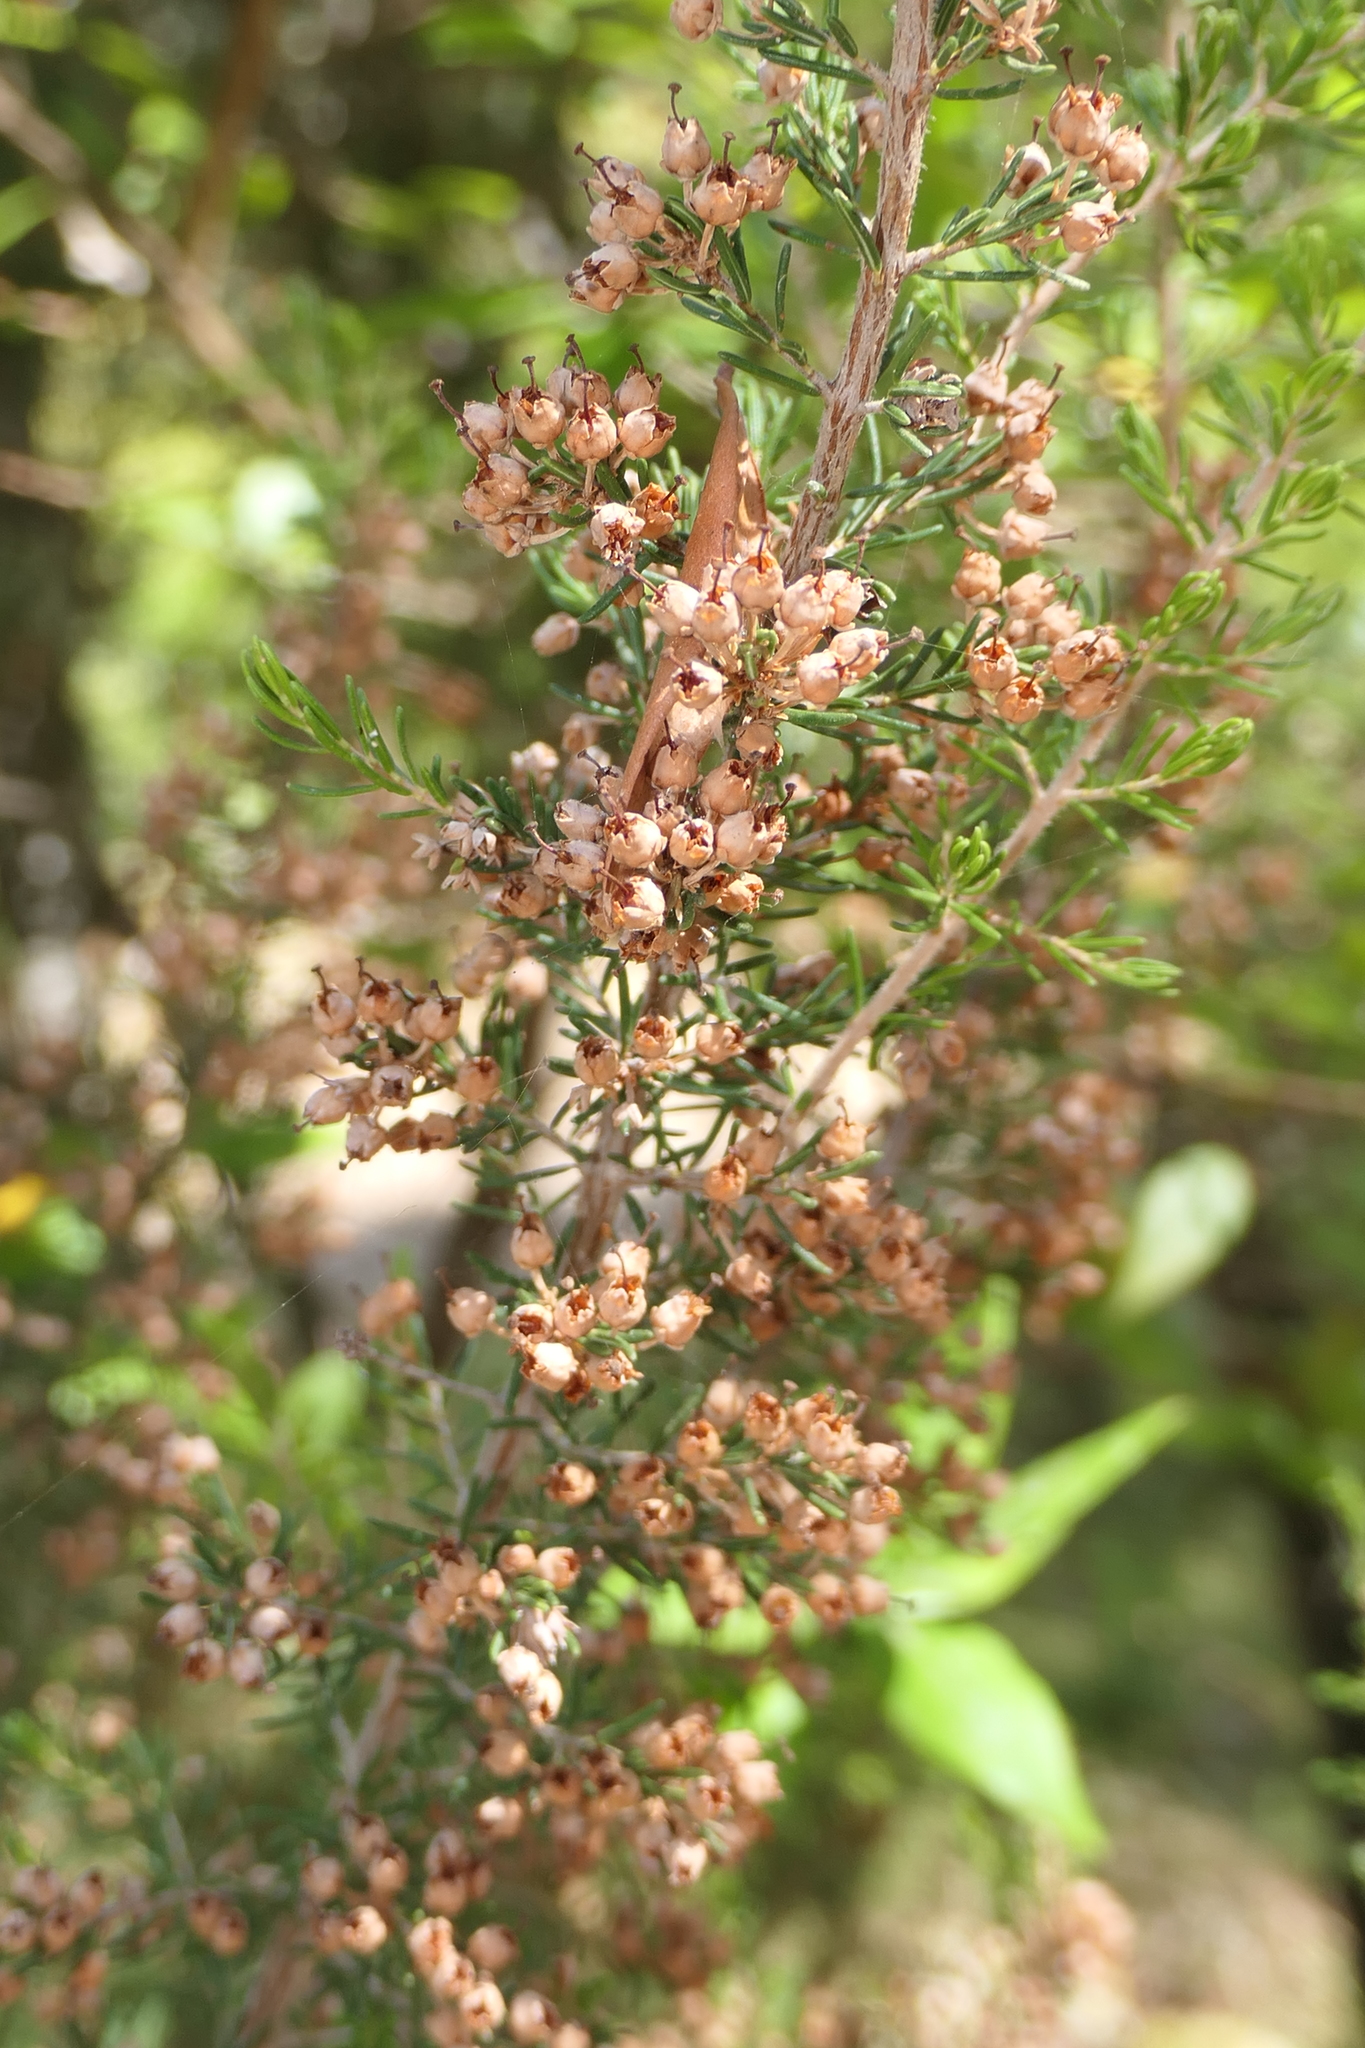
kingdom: Plantae
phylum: Tracheophyta
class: Magnoliopsida
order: Ericales
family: Ericaceae
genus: Erica
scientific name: Erica arborea
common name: Tree heath
